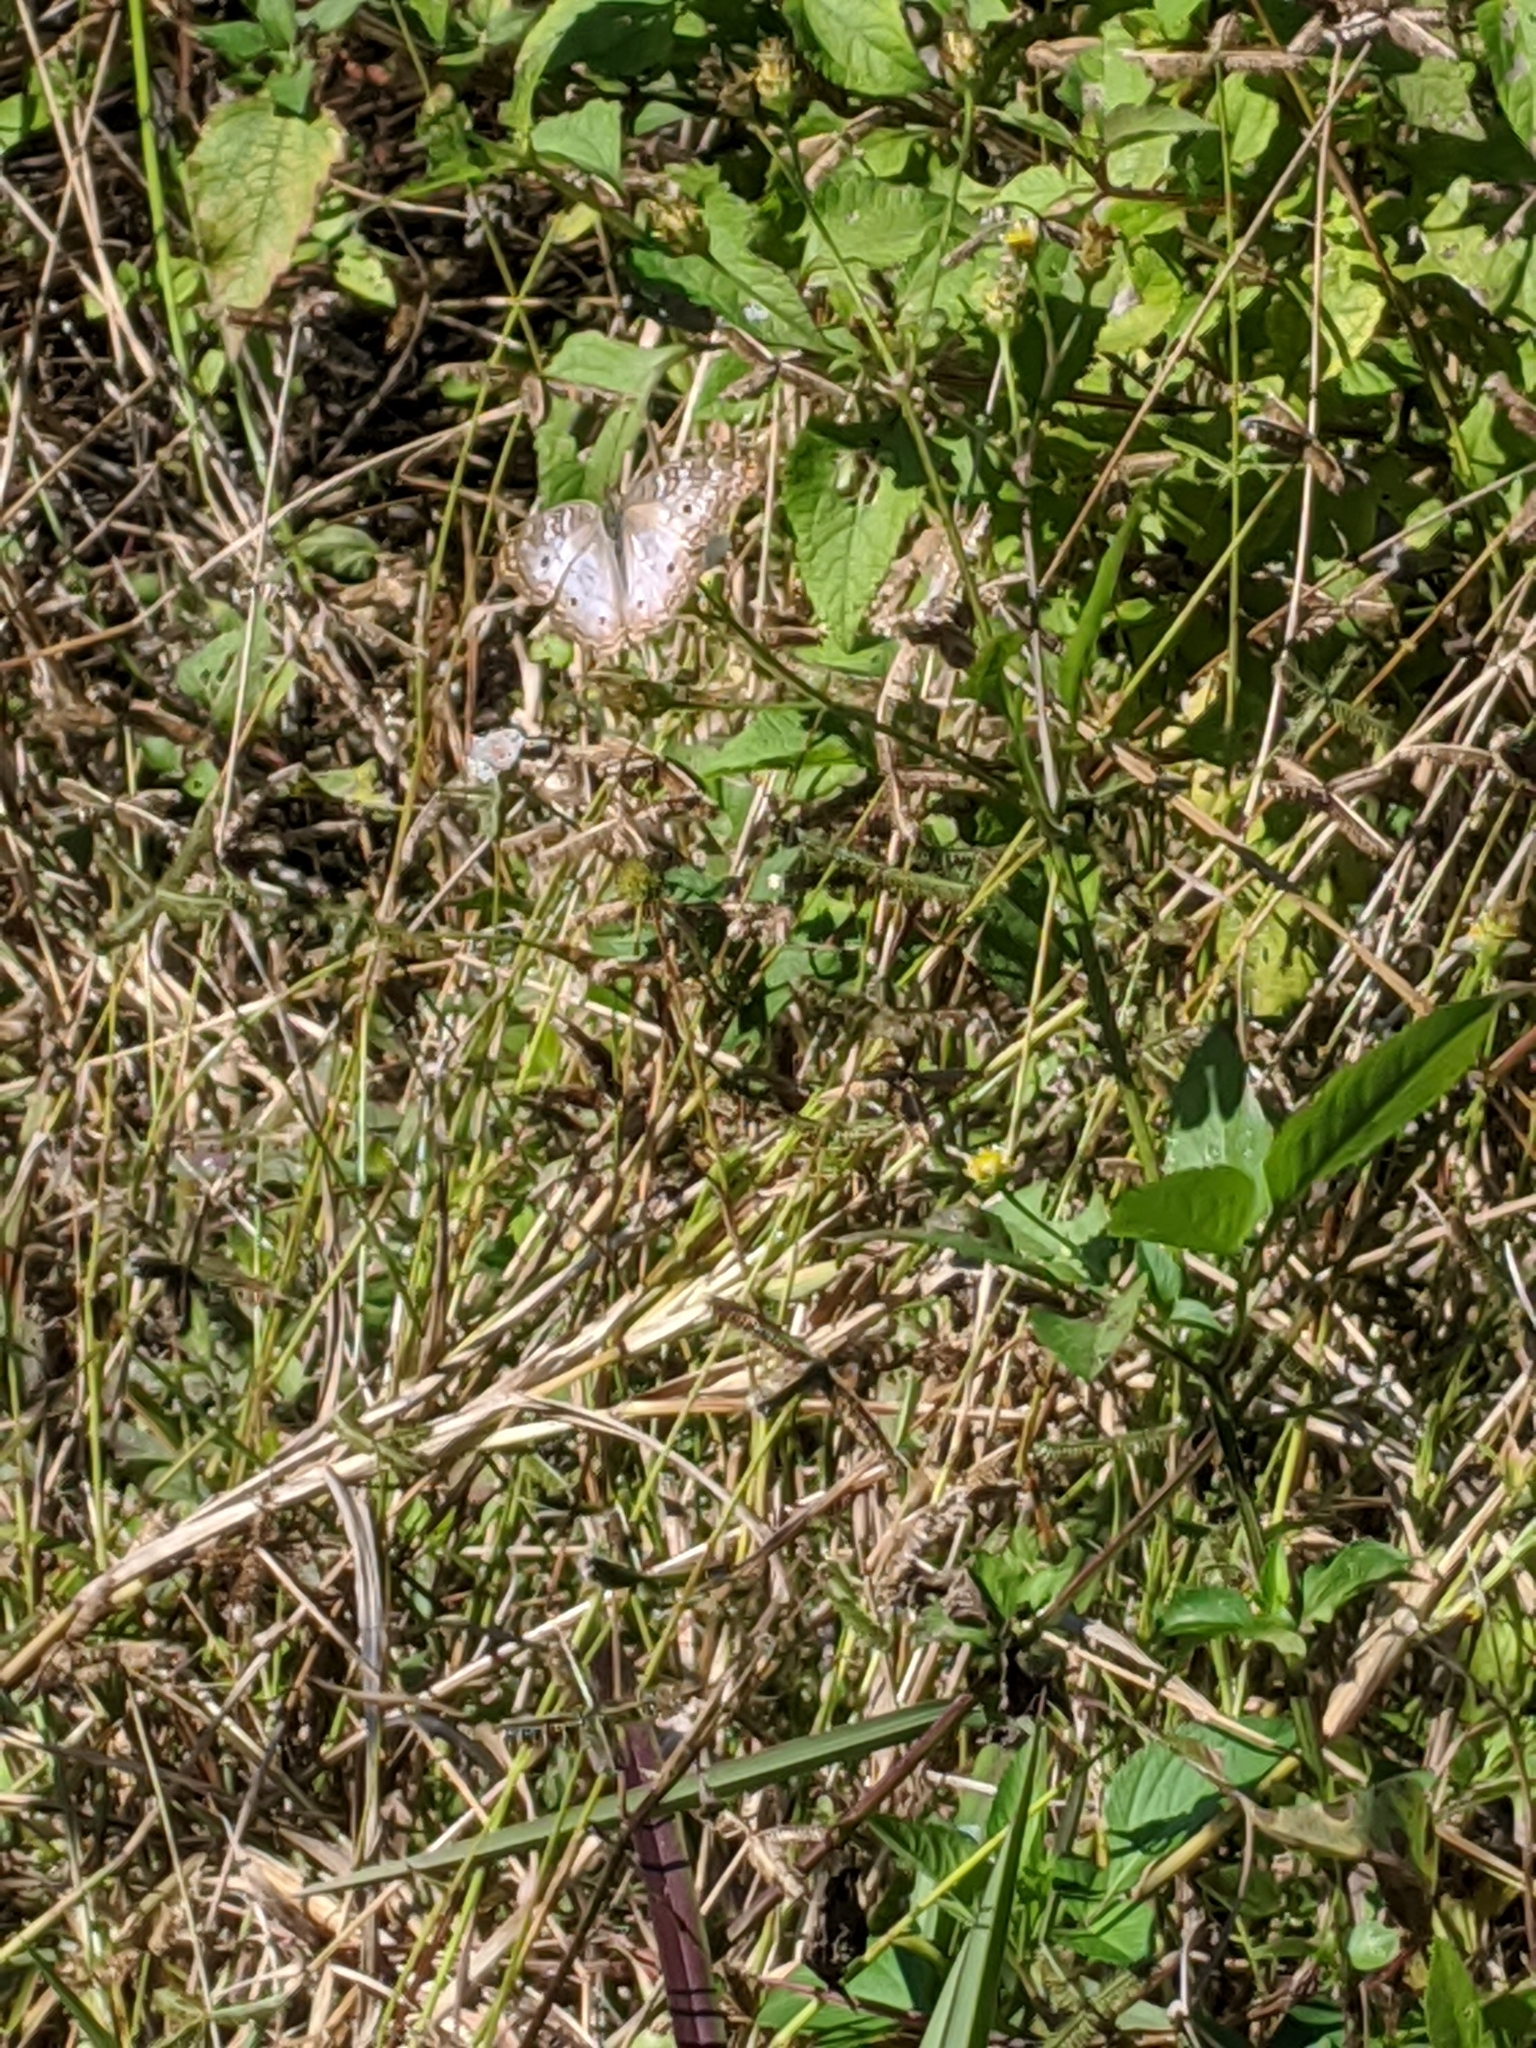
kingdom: Animalia
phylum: Arthropoda
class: Insecta
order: Lepidoptera
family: Nymphalidae
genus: Anartia
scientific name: Anartia jatrophae
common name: White peacock
